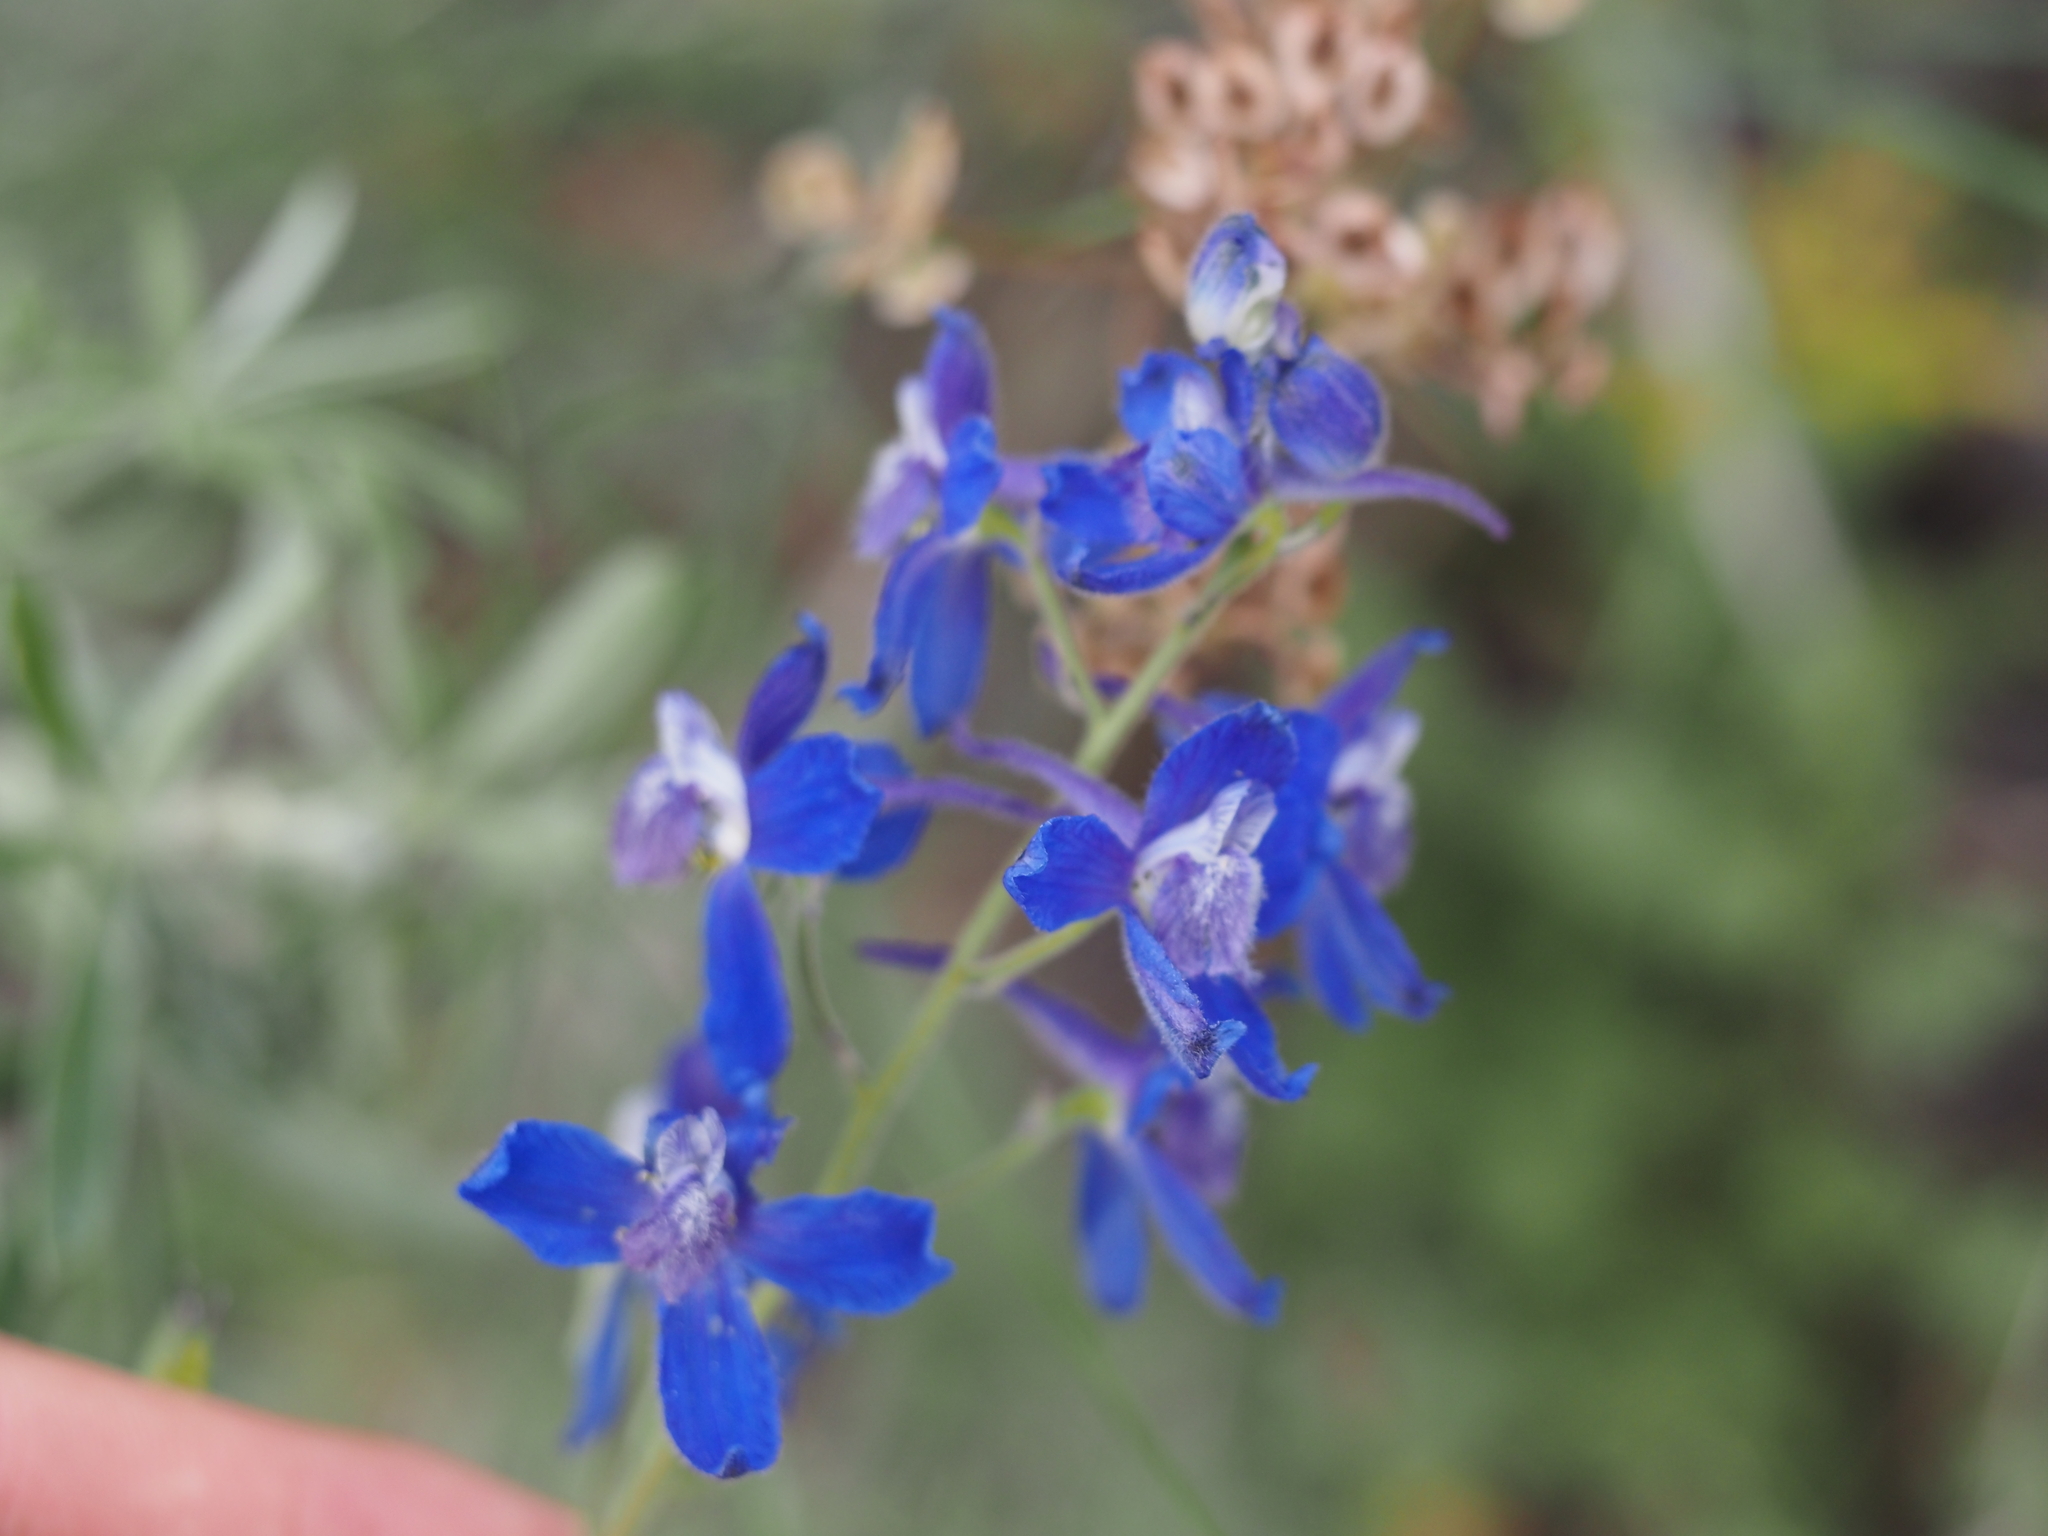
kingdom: Plantae
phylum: Tracheophyta
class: Magnoliopsida
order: Ranunculales
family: Ranunculaceae
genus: Delphinium
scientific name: Delphinium nuttallianum
